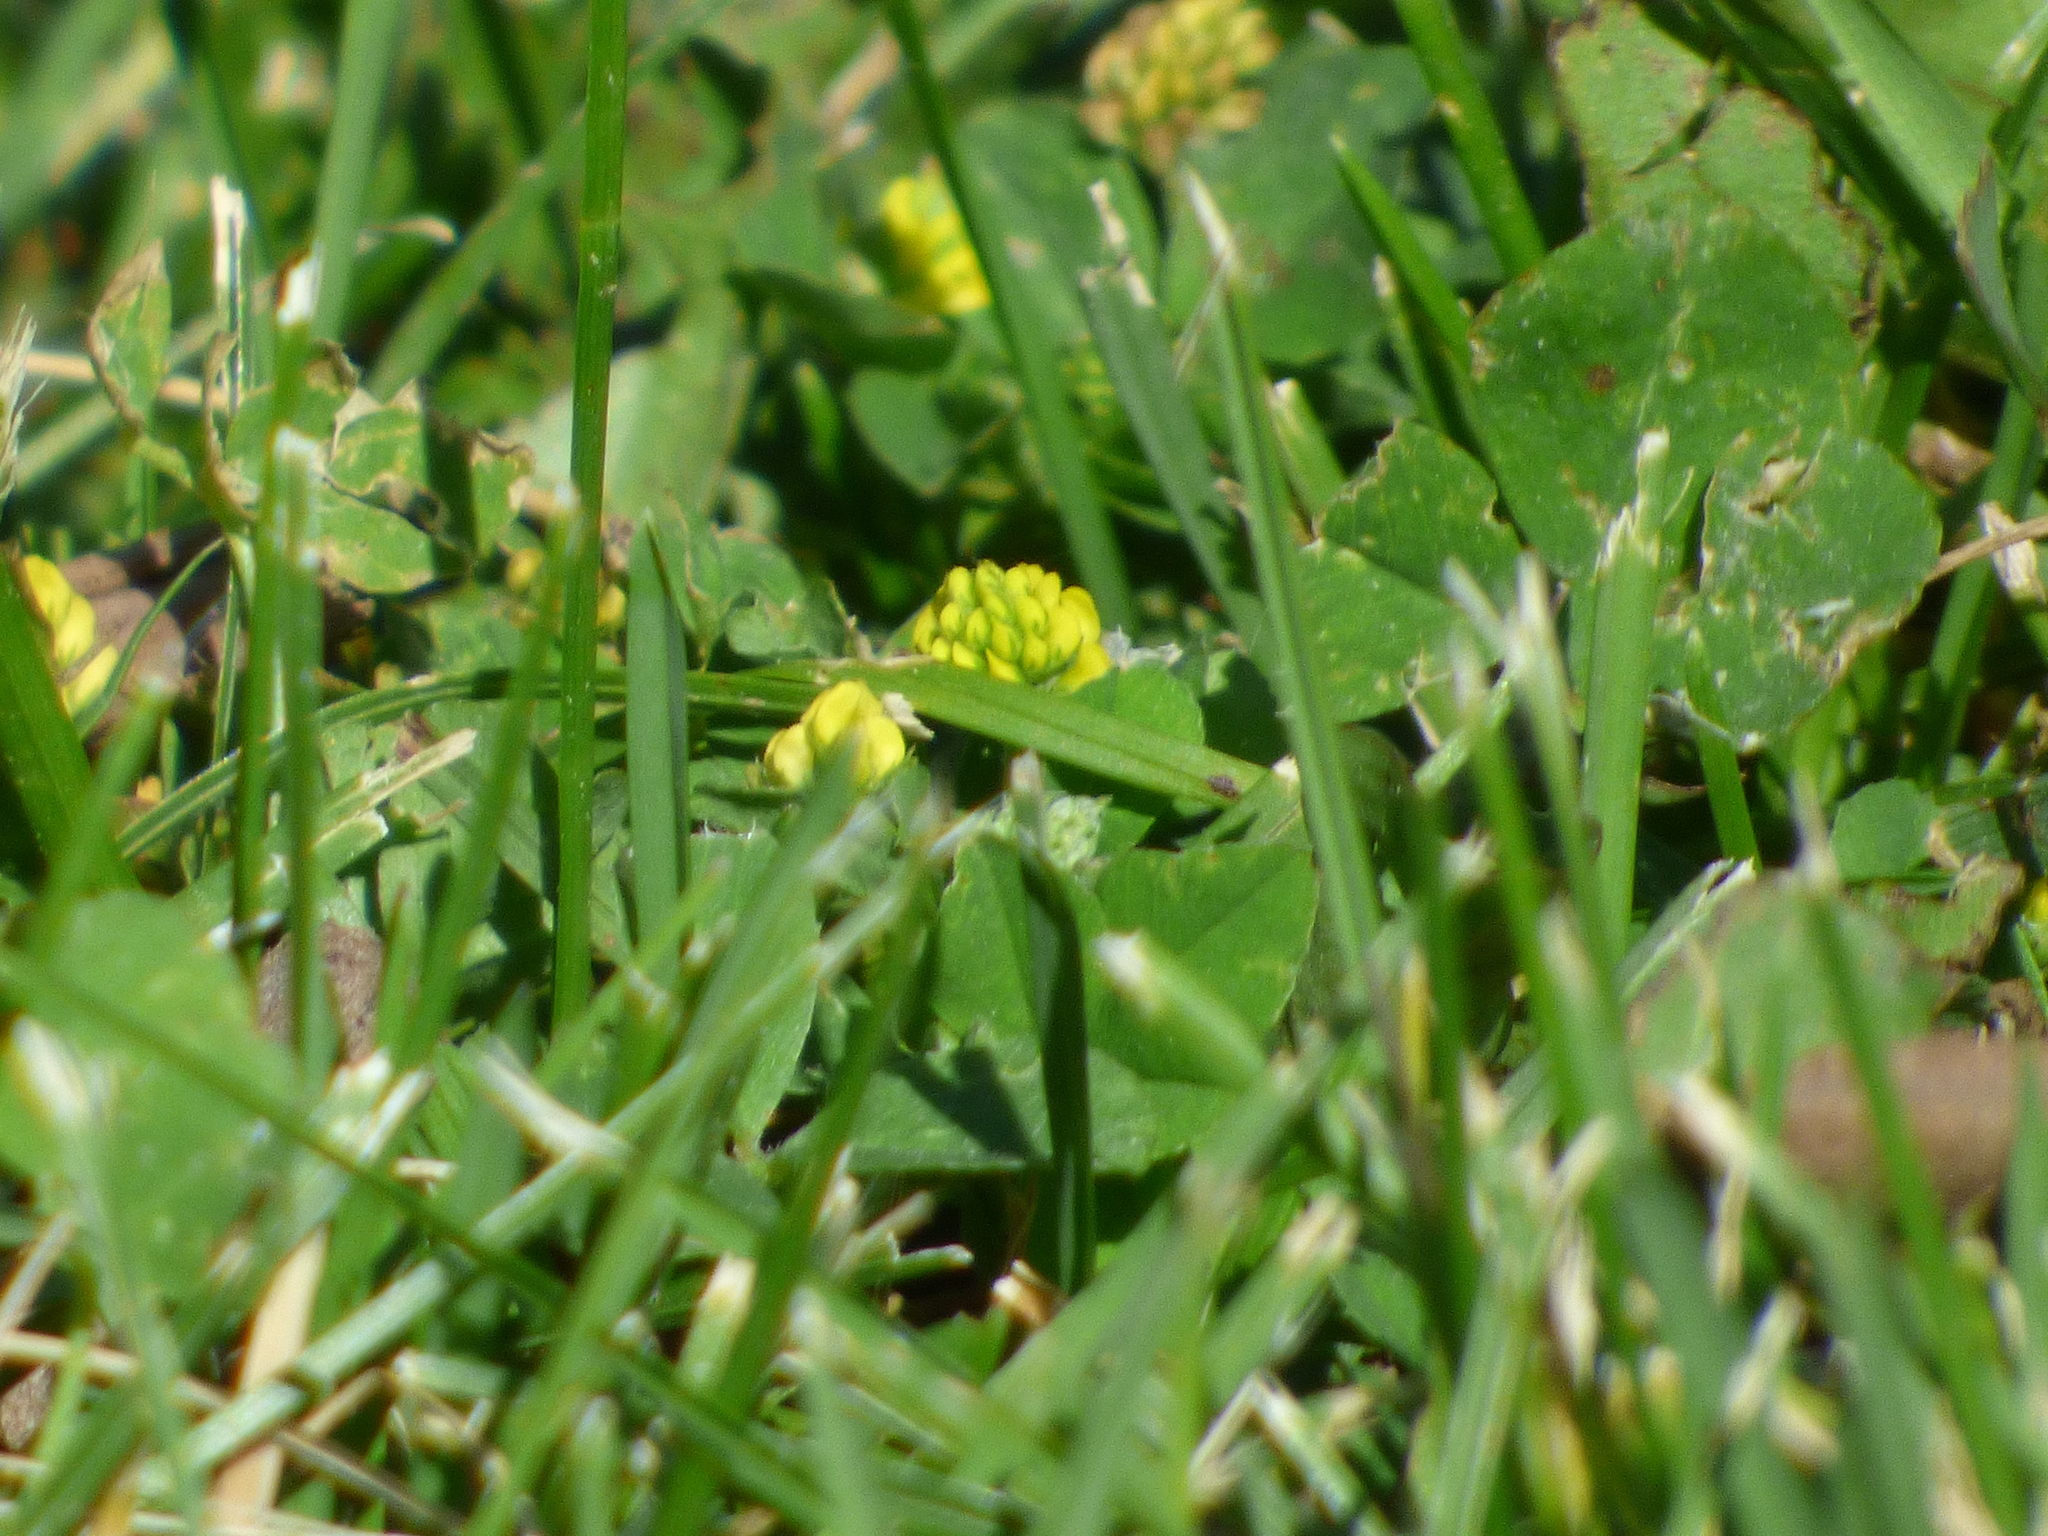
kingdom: Plantae
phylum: Tracheophyta
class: Magnoliopsida
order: Fabales
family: Fabaceae
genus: Medicago
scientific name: Medicago lupulina
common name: Black medick
